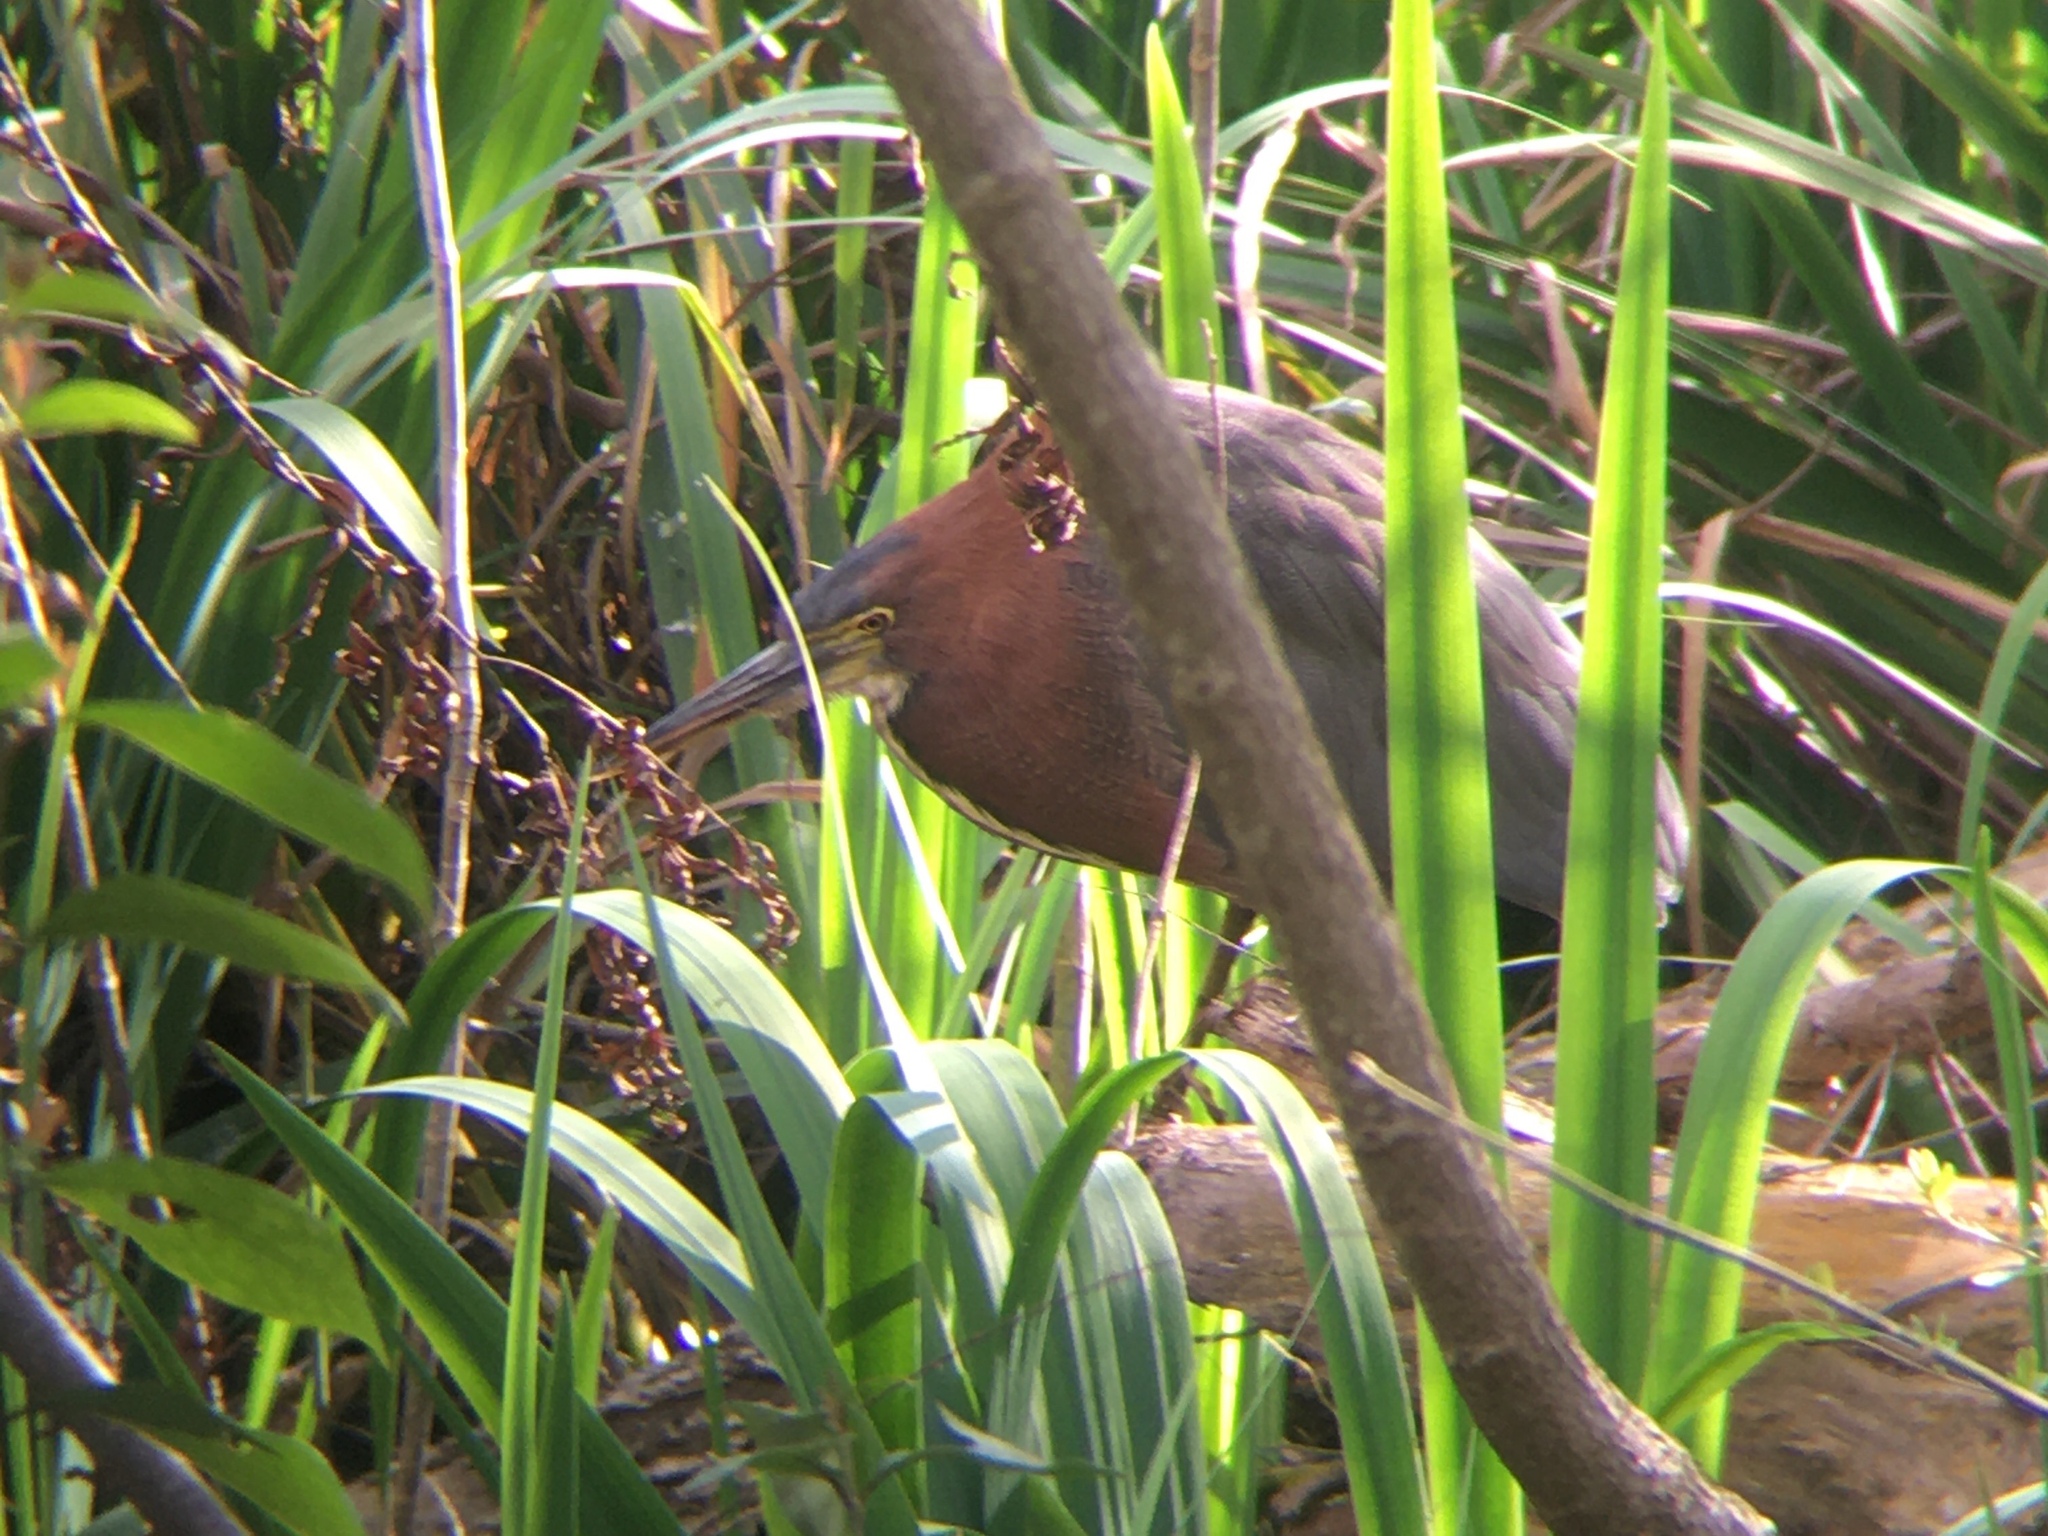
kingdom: Animalia
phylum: Chordata
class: Aves
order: Pelecaniformes
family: Ardeidae
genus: Tigrisoma
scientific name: Tigrisoma lineatum
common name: Rufescent tiger-heron
